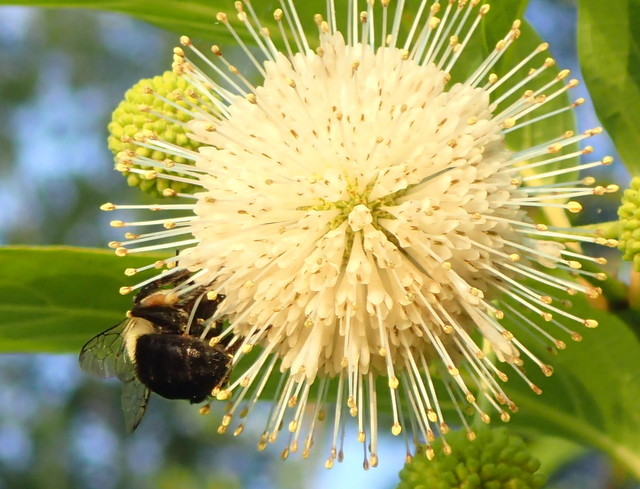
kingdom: Animalia
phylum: Arthropoda
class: Insecta
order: Hymenoptera
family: Apidae
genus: Bombus
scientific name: Bombus impatiens
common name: Common eastern bumble bee
